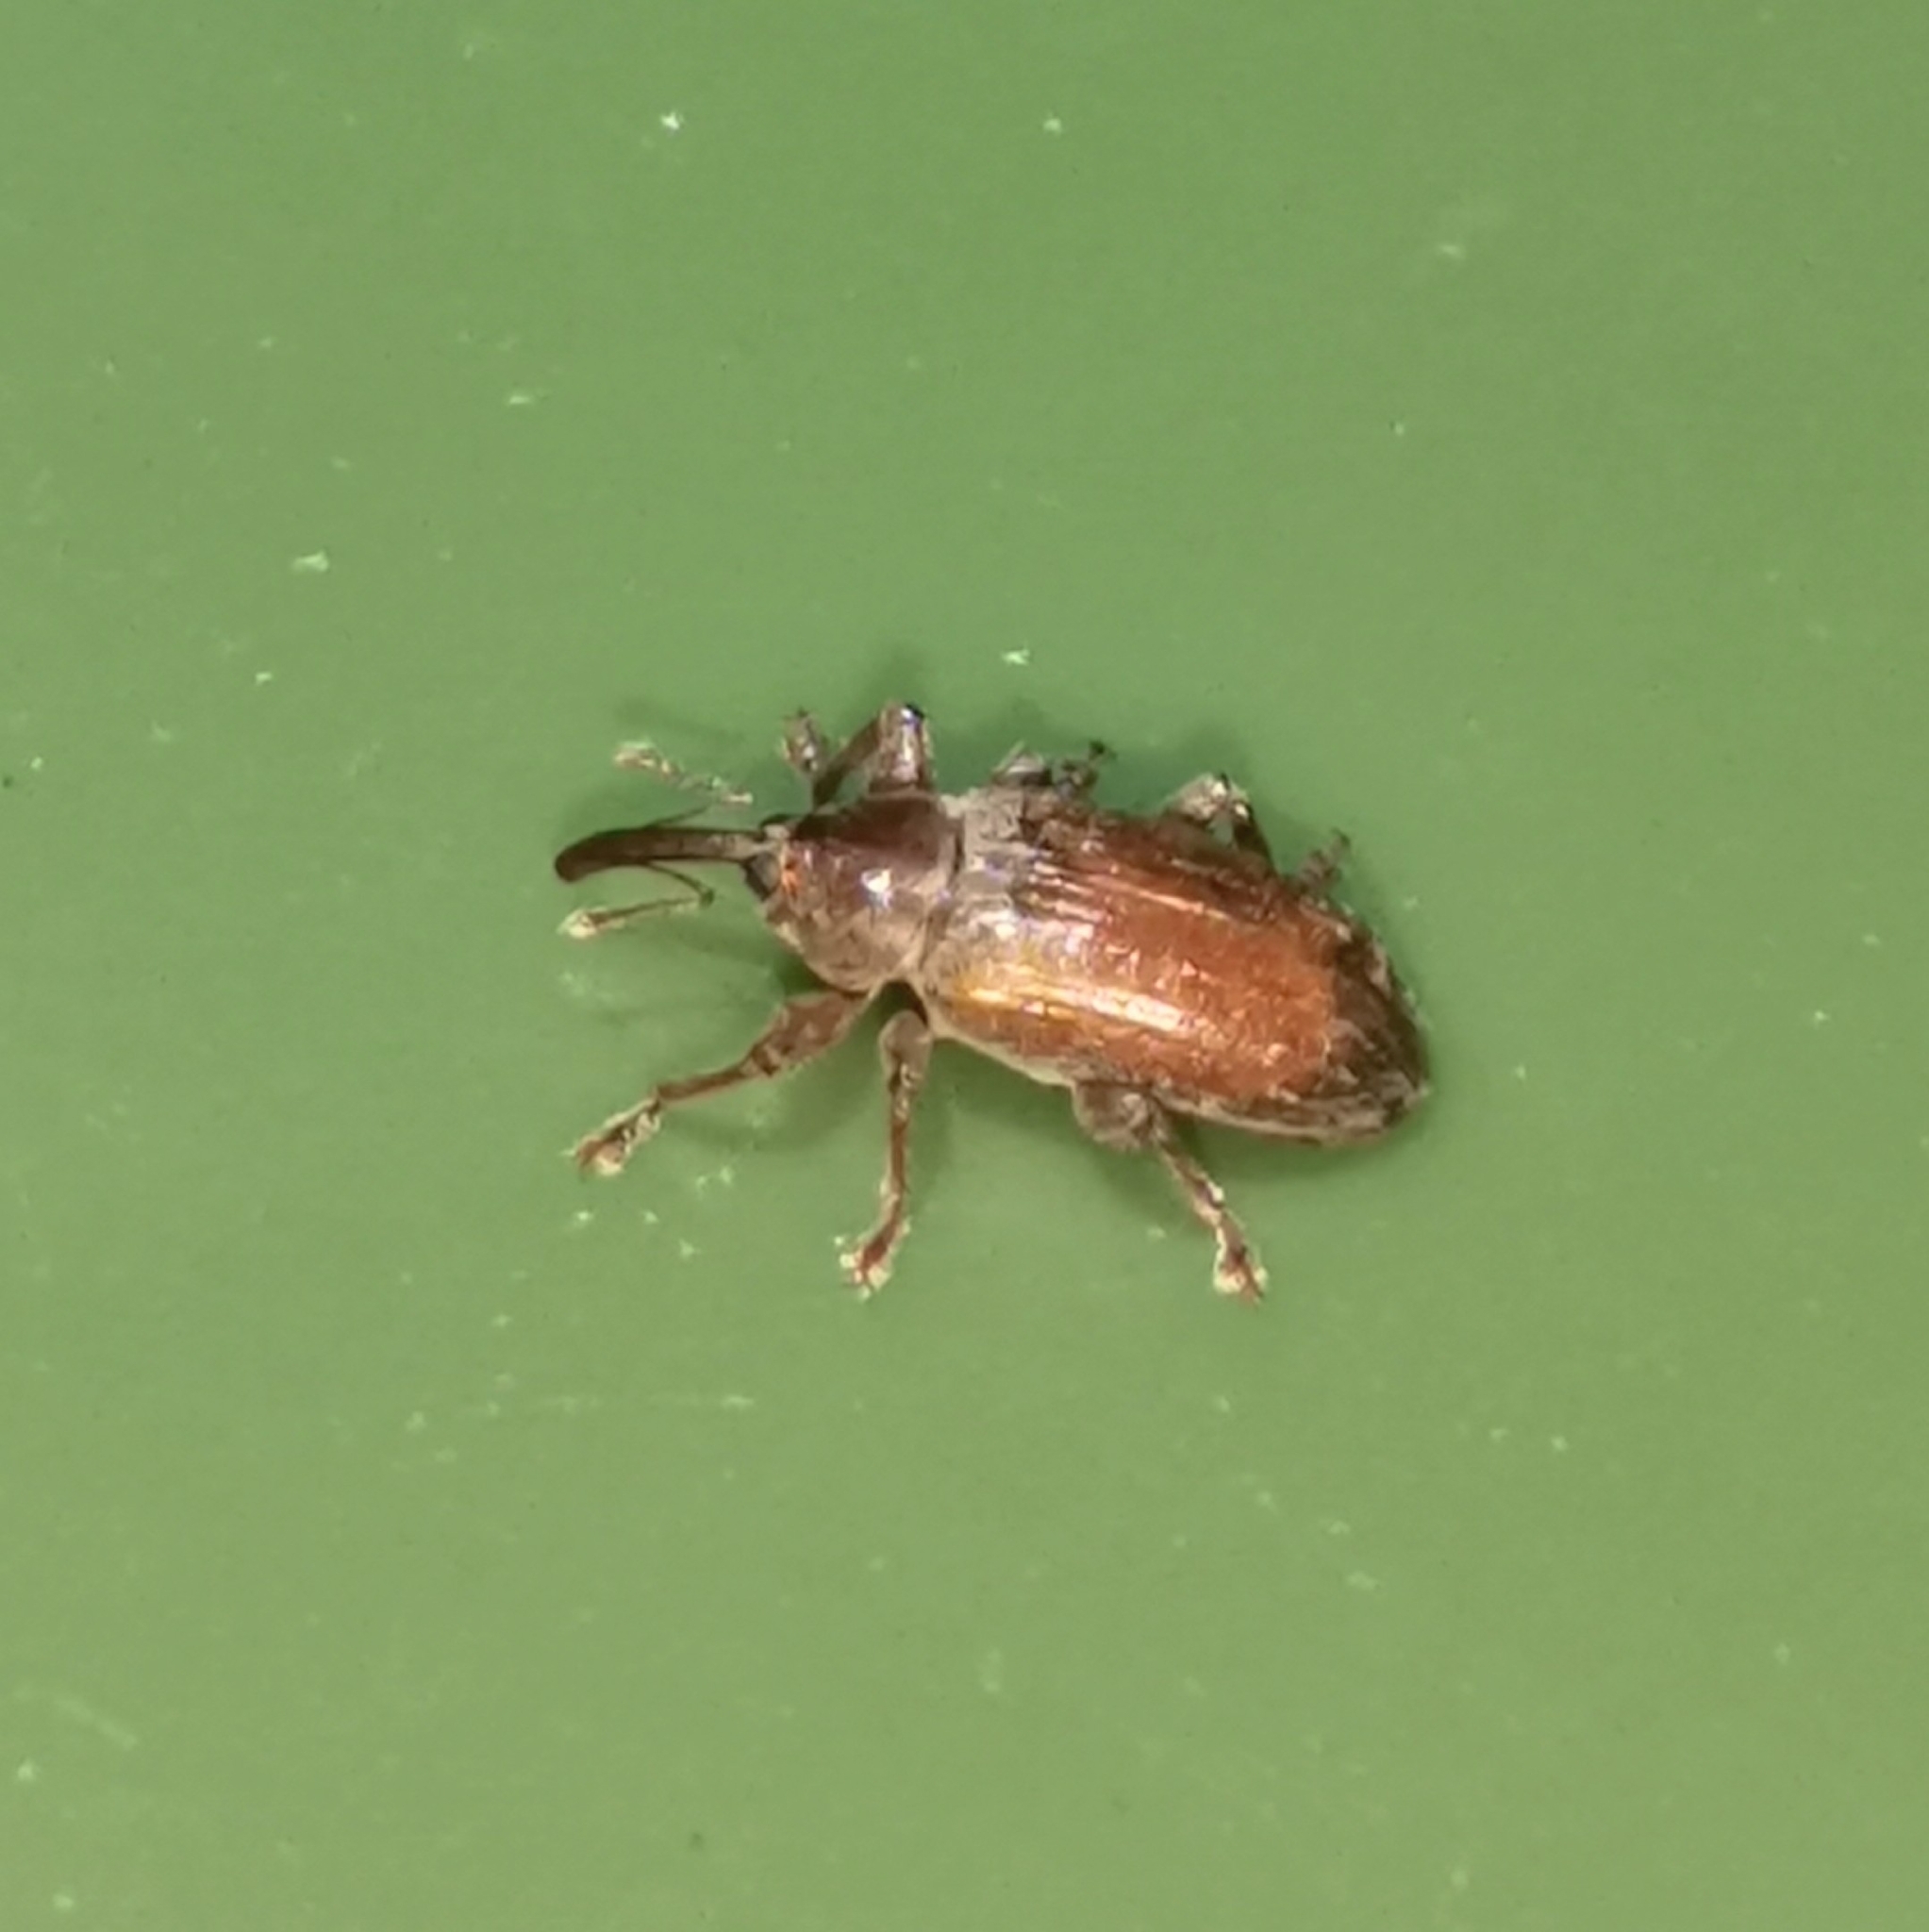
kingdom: Animalia
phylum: Arthropoda
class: Insecta
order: Coleoptera
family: Curculionidae
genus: Dorytomus
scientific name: Dorytomus tortrix
